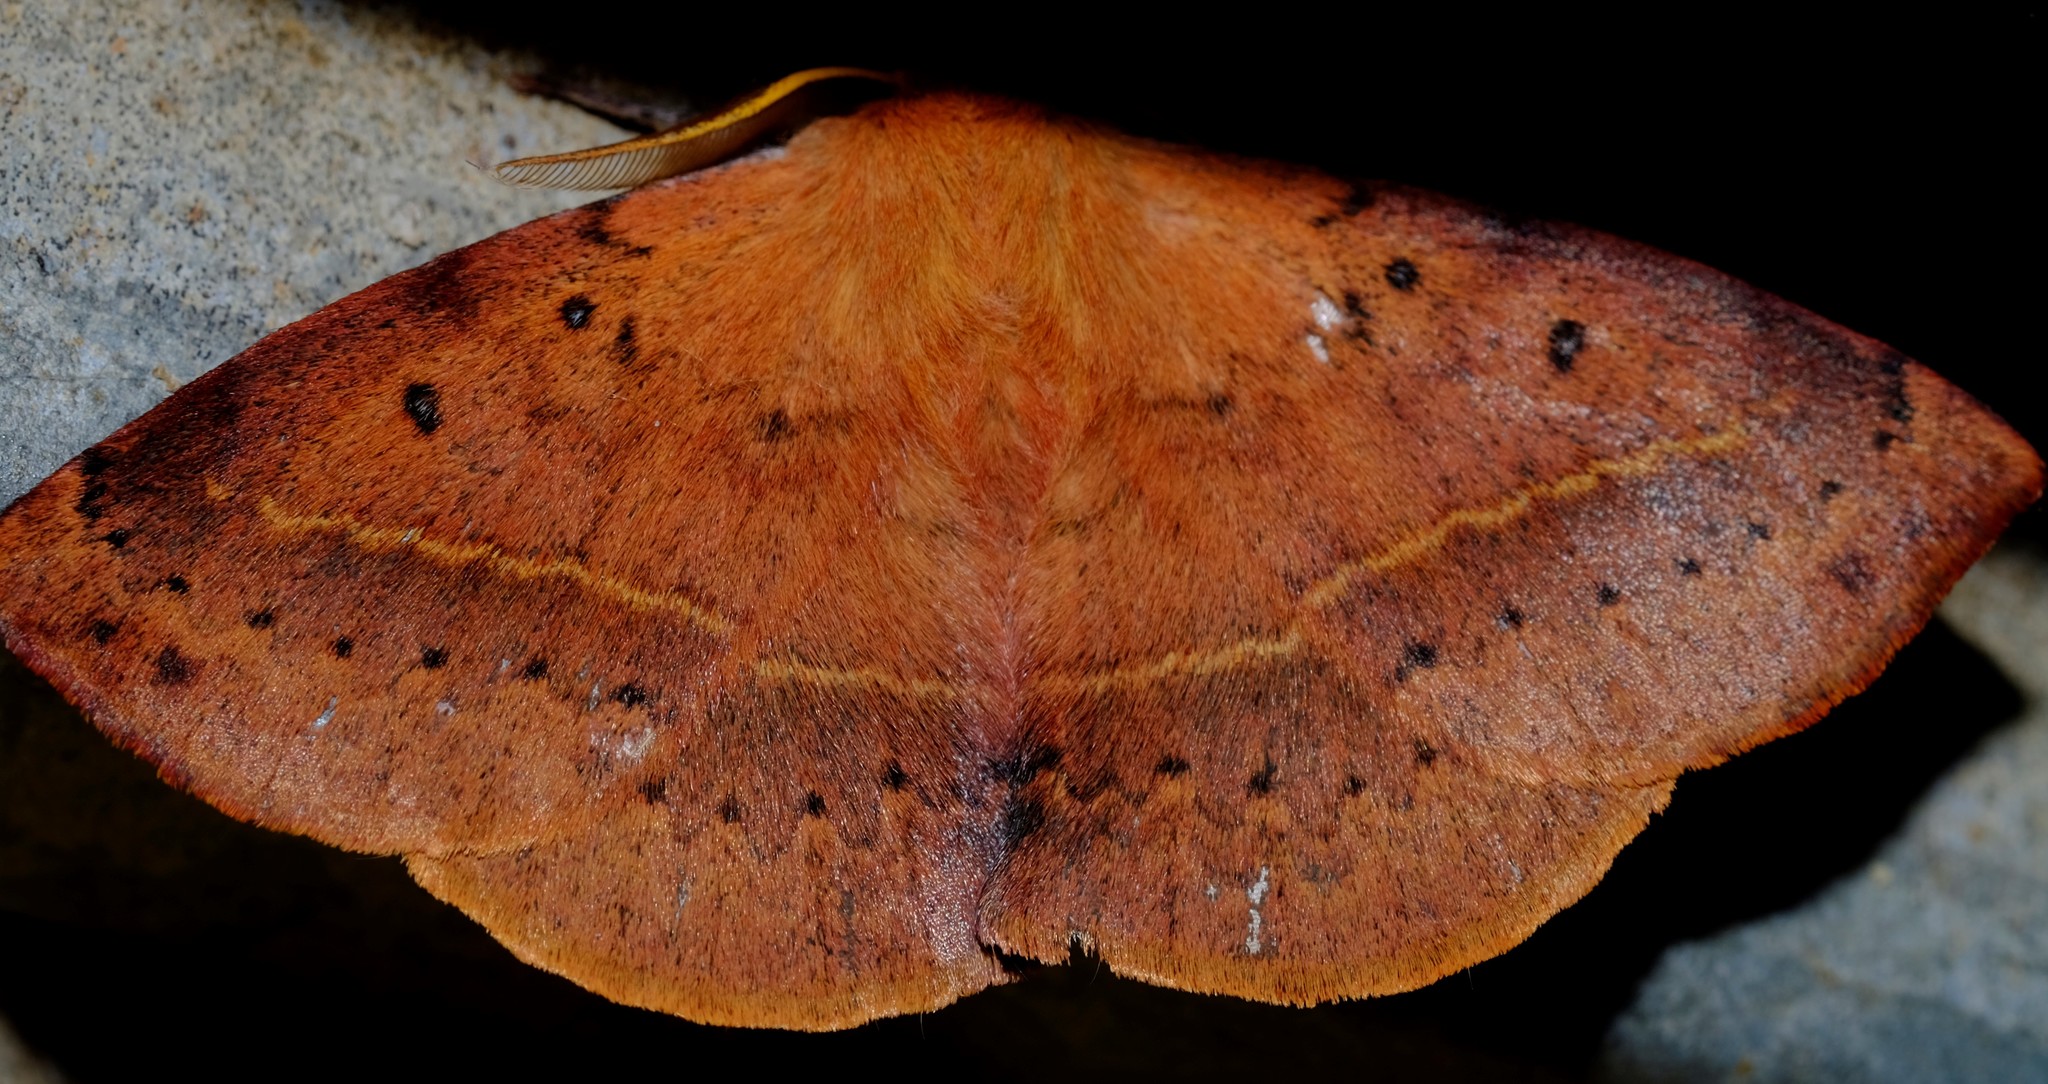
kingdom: Animalia
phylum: Arthropoda
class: Insecta
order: Lepidoptera
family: Anthelidae
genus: Anthela
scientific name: Anthela acuta
